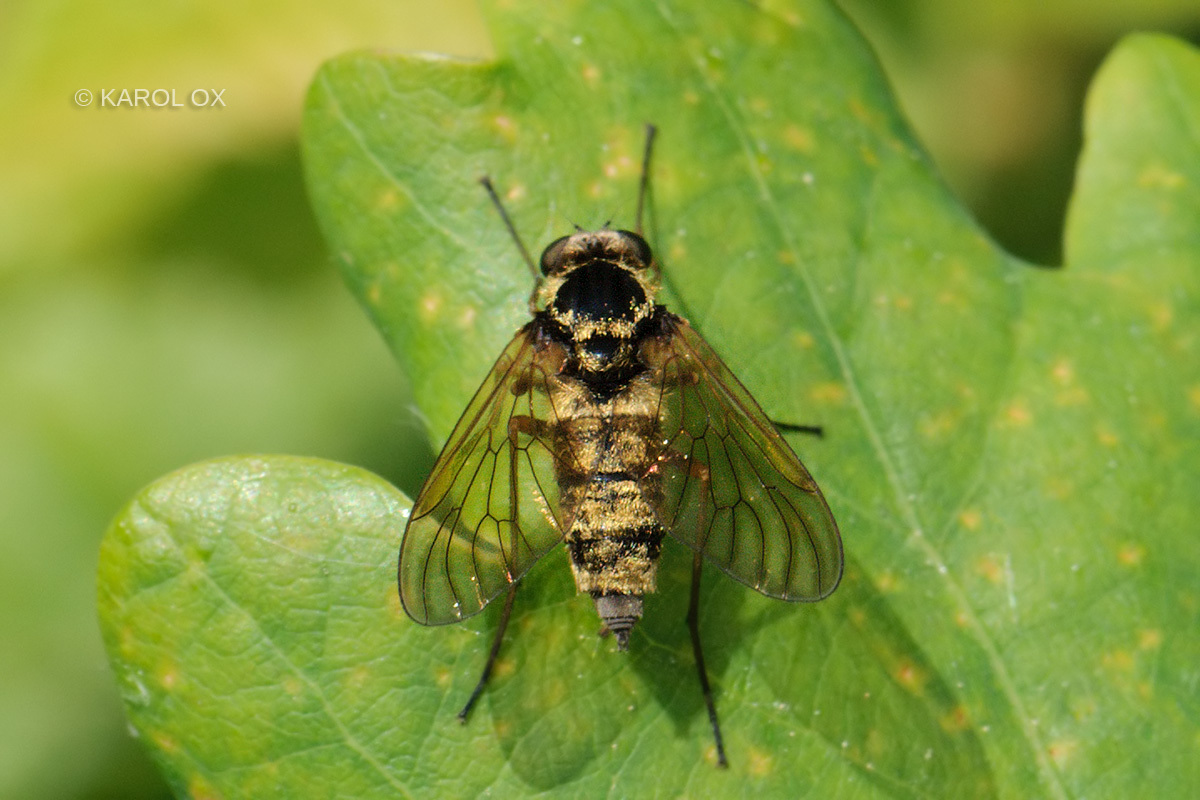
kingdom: Animalia
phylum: Arthropoda
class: Insecta
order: Diptera
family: Rhagionidae
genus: Chrysopilus
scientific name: Chrysopilus helvolus
